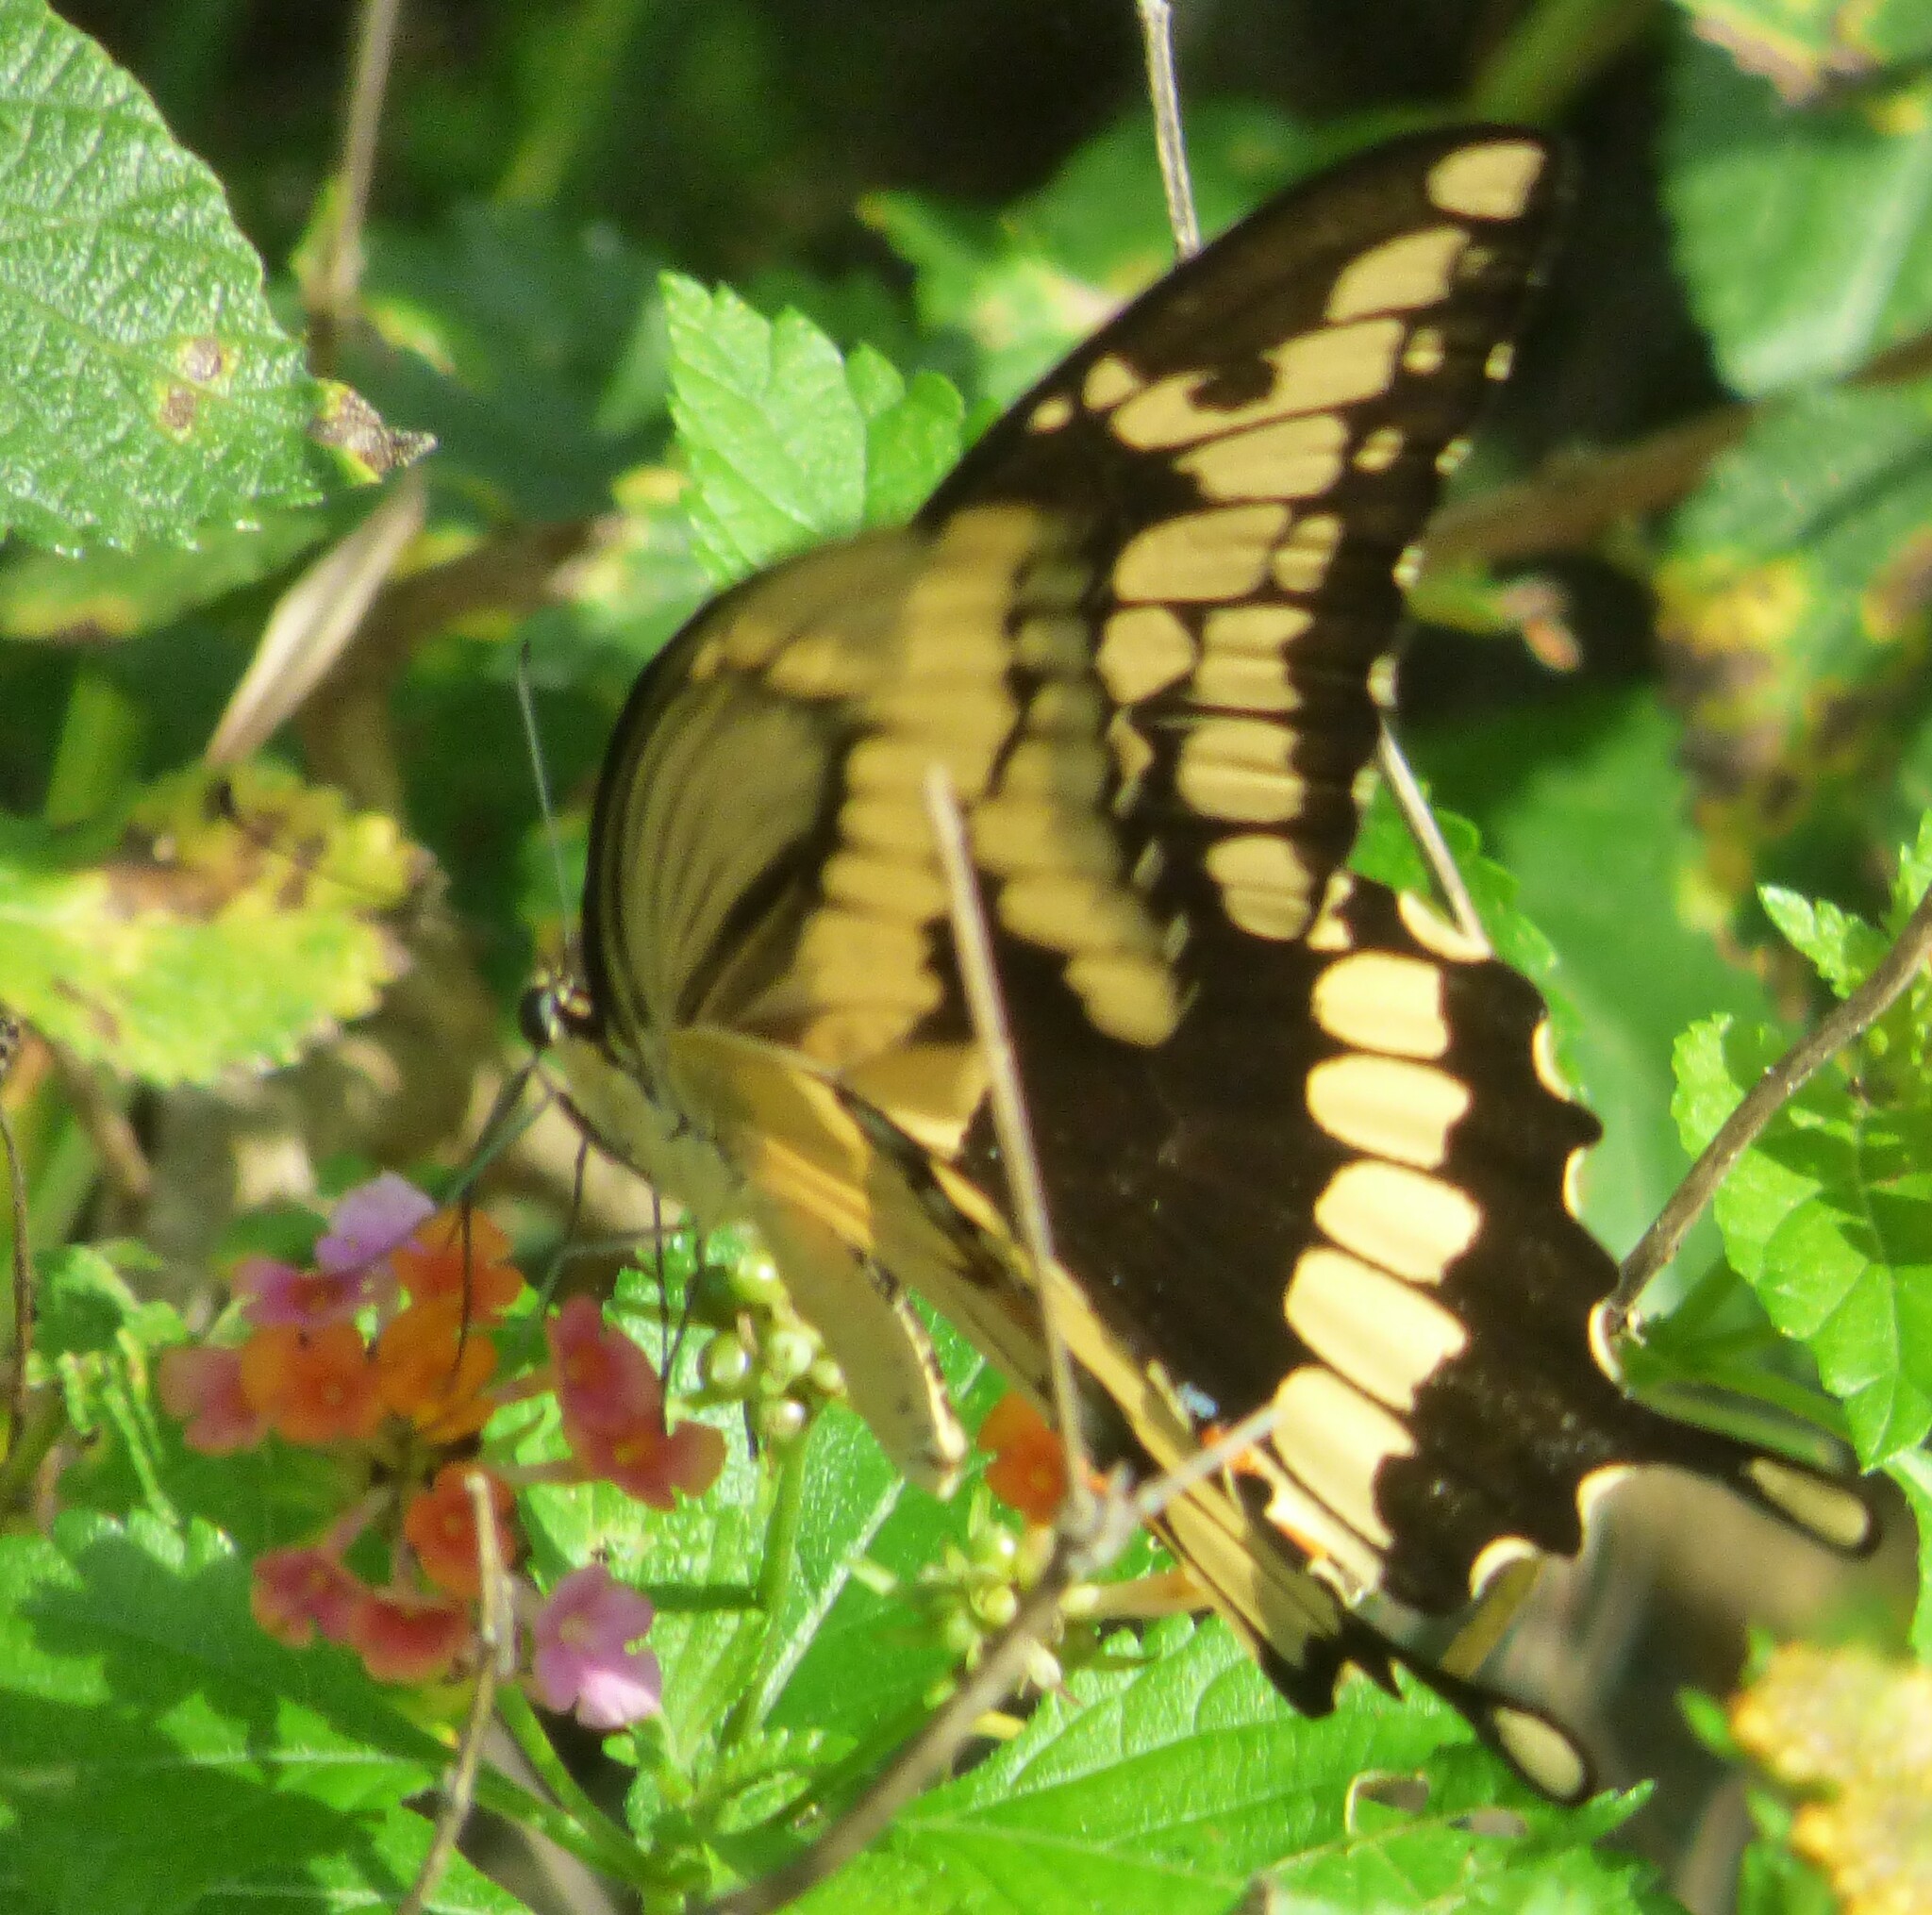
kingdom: Animalia
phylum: Arthropoda
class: Insecta
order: Lepidoptera
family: Papilionidae
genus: Papilio
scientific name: Papilio cresphontes
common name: Giant swallowtail
